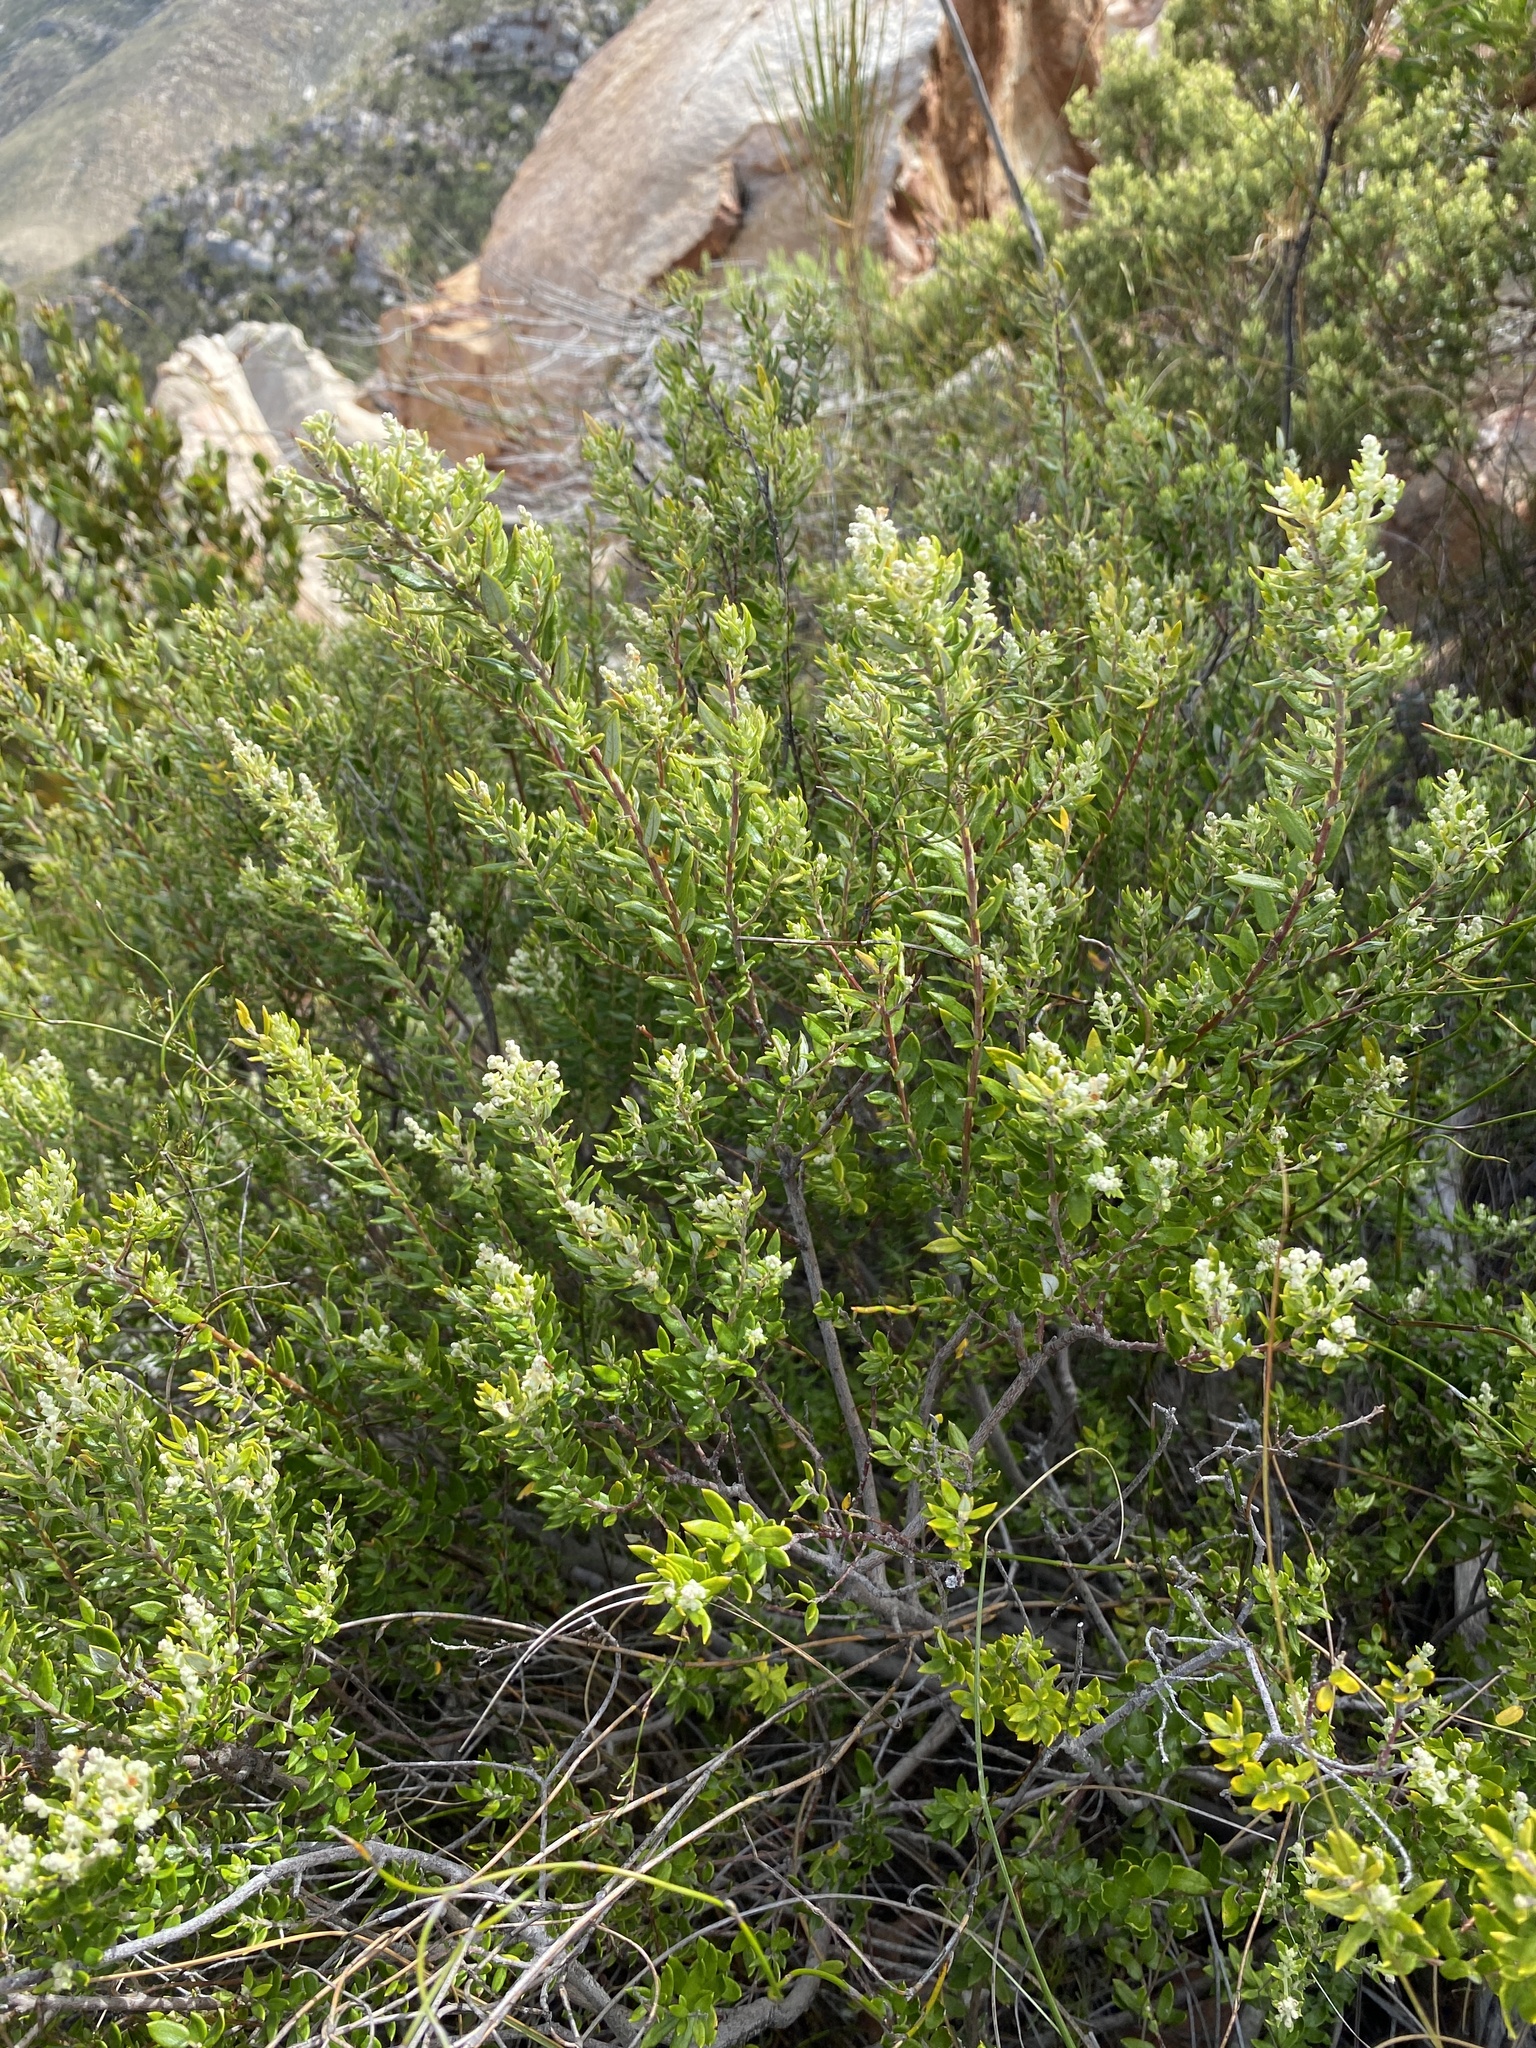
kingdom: Plantae
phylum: Tracheophyta
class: Magnoliopsida
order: Rosales
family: Rhamnaceae
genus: Phylica
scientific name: Phylica paniculata
